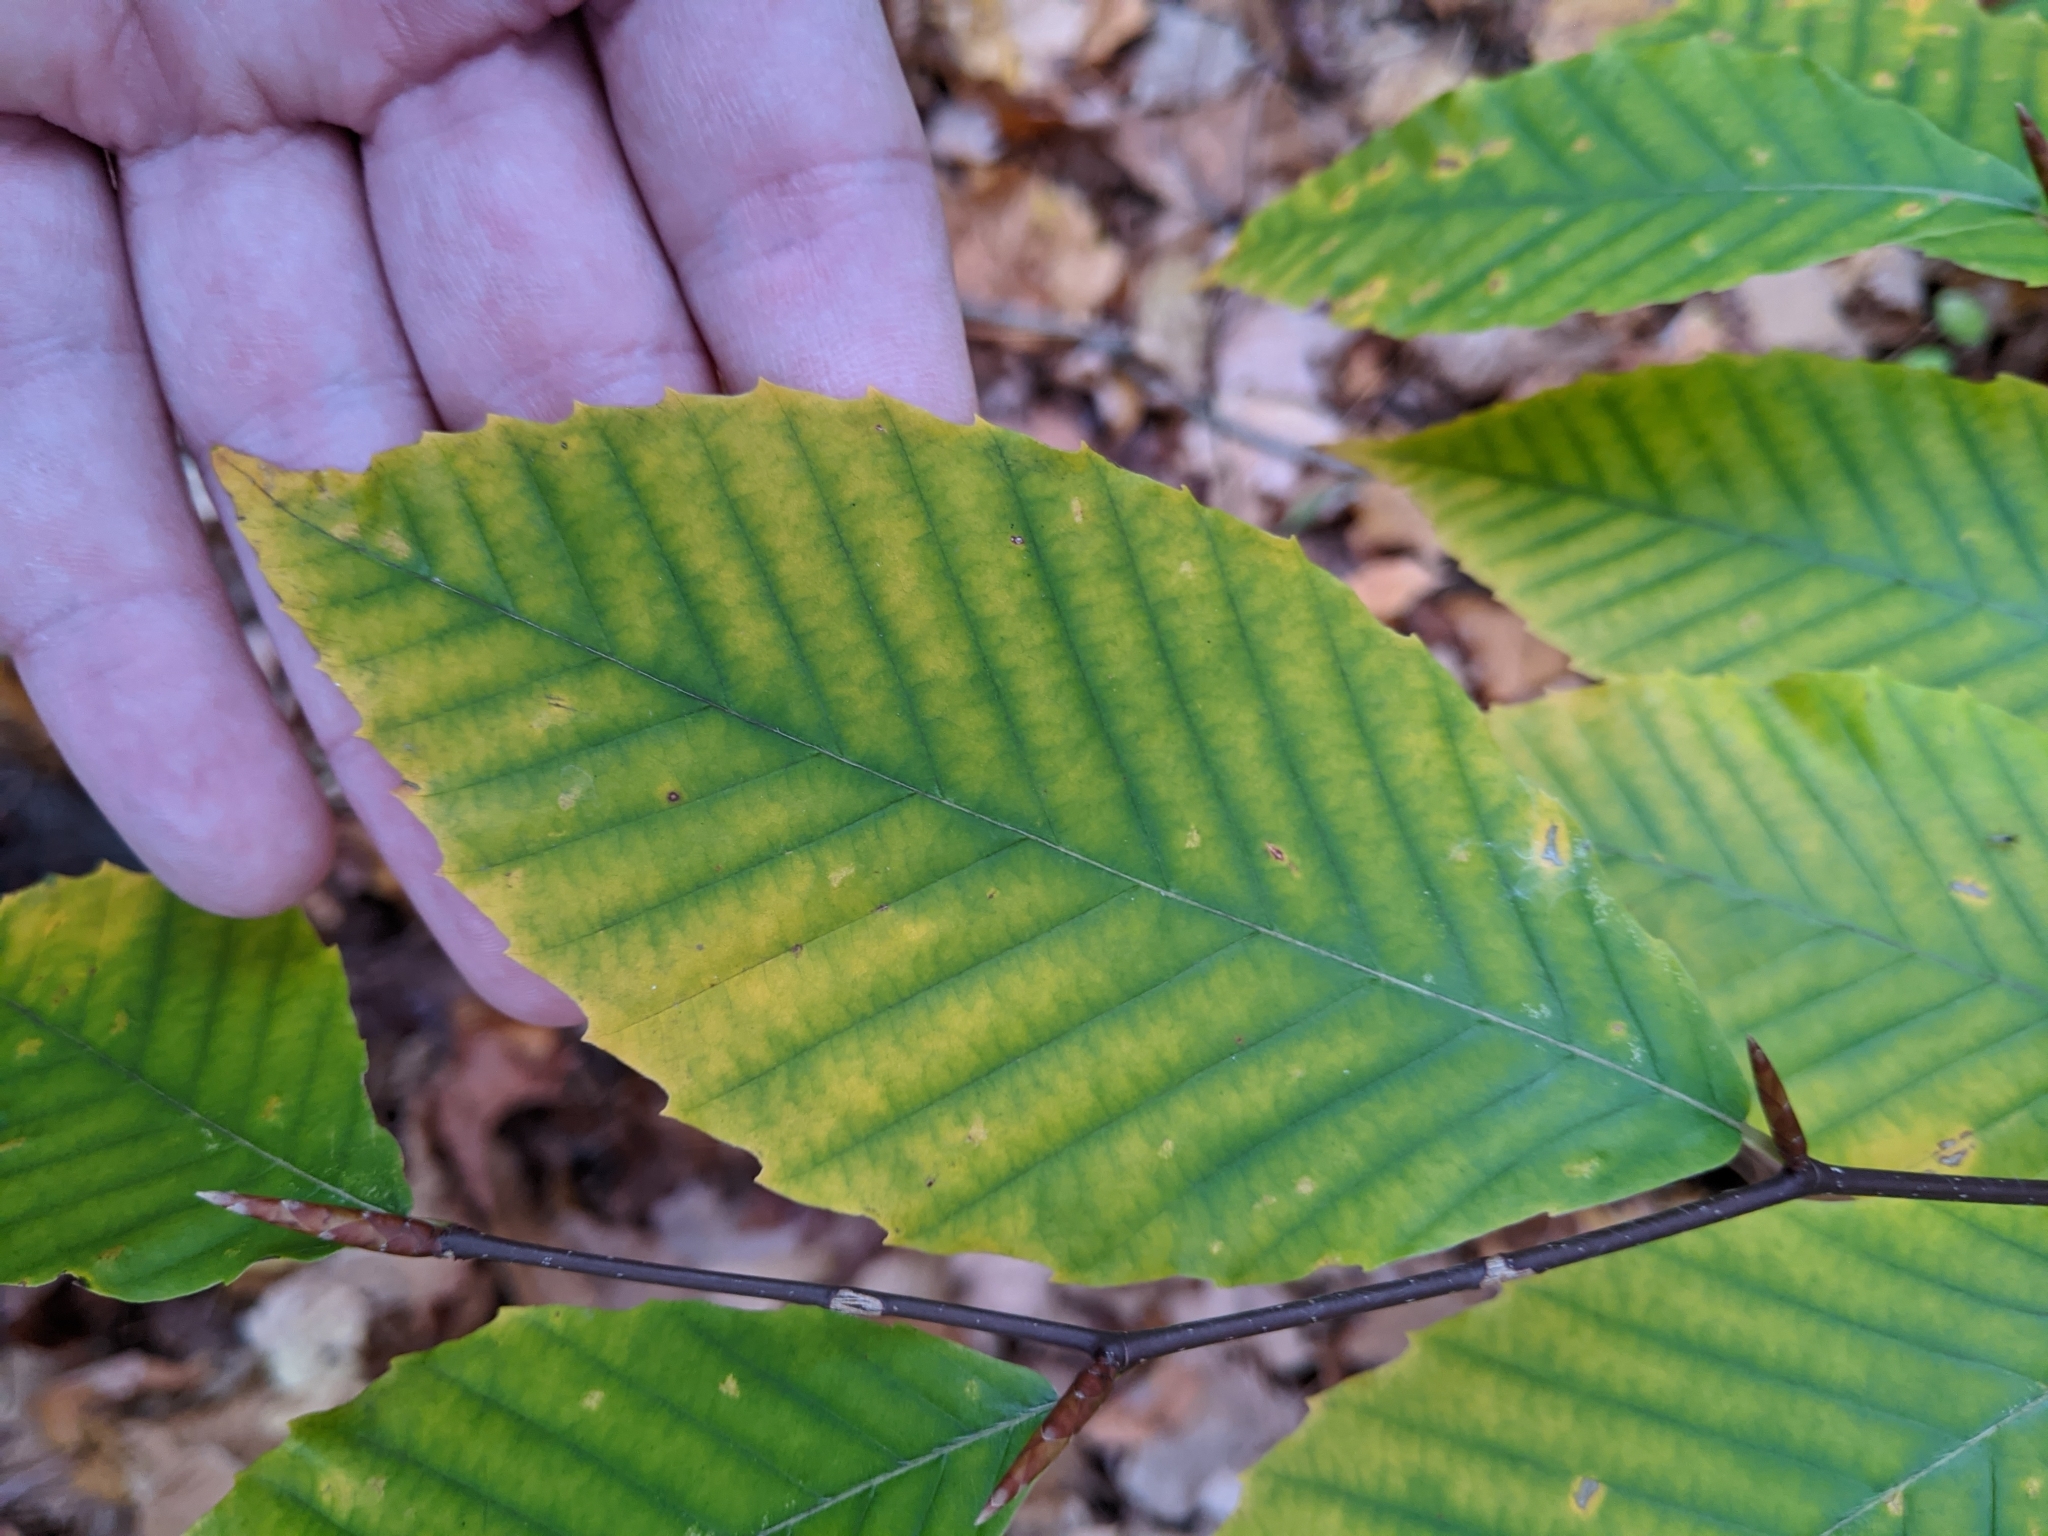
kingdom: Plantae
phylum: Tracheophyta
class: Magnoliopsida
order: Fagales
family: Fagaceae
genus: Fagus
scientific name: Fagus grandifolia
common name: American beech
